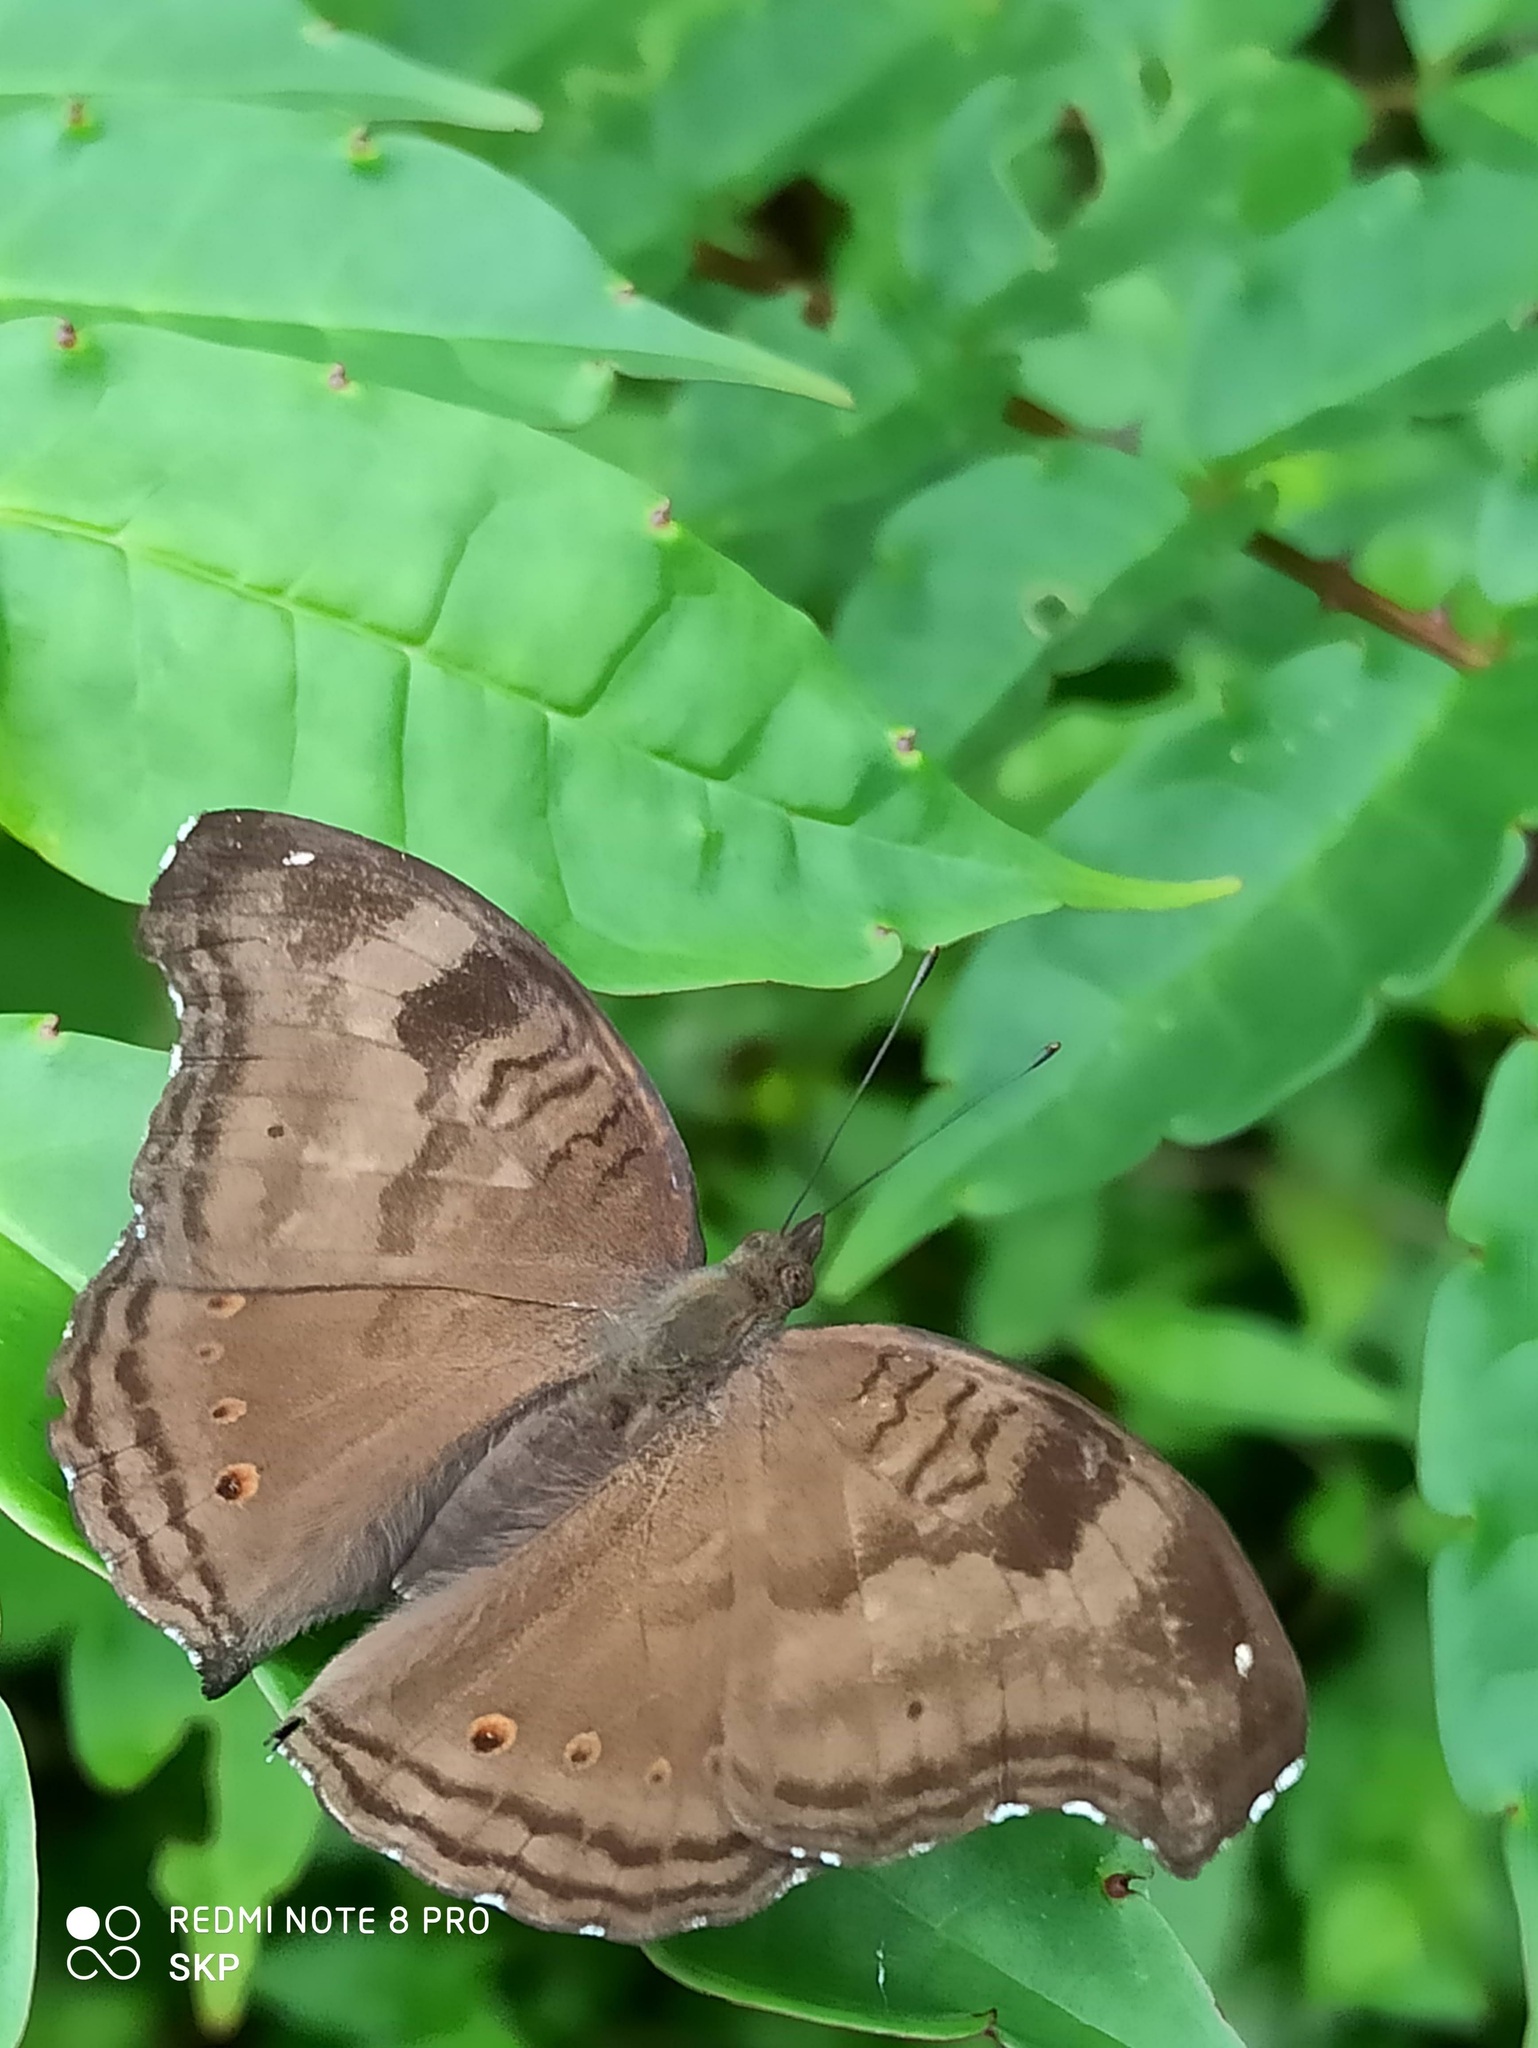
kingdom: Animalia
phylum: Arthropoda
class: Insecta
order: Lepidoptera
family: Nymphalidae
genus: Junonia
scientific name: Junonia iphita
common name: Chocolate pansy
